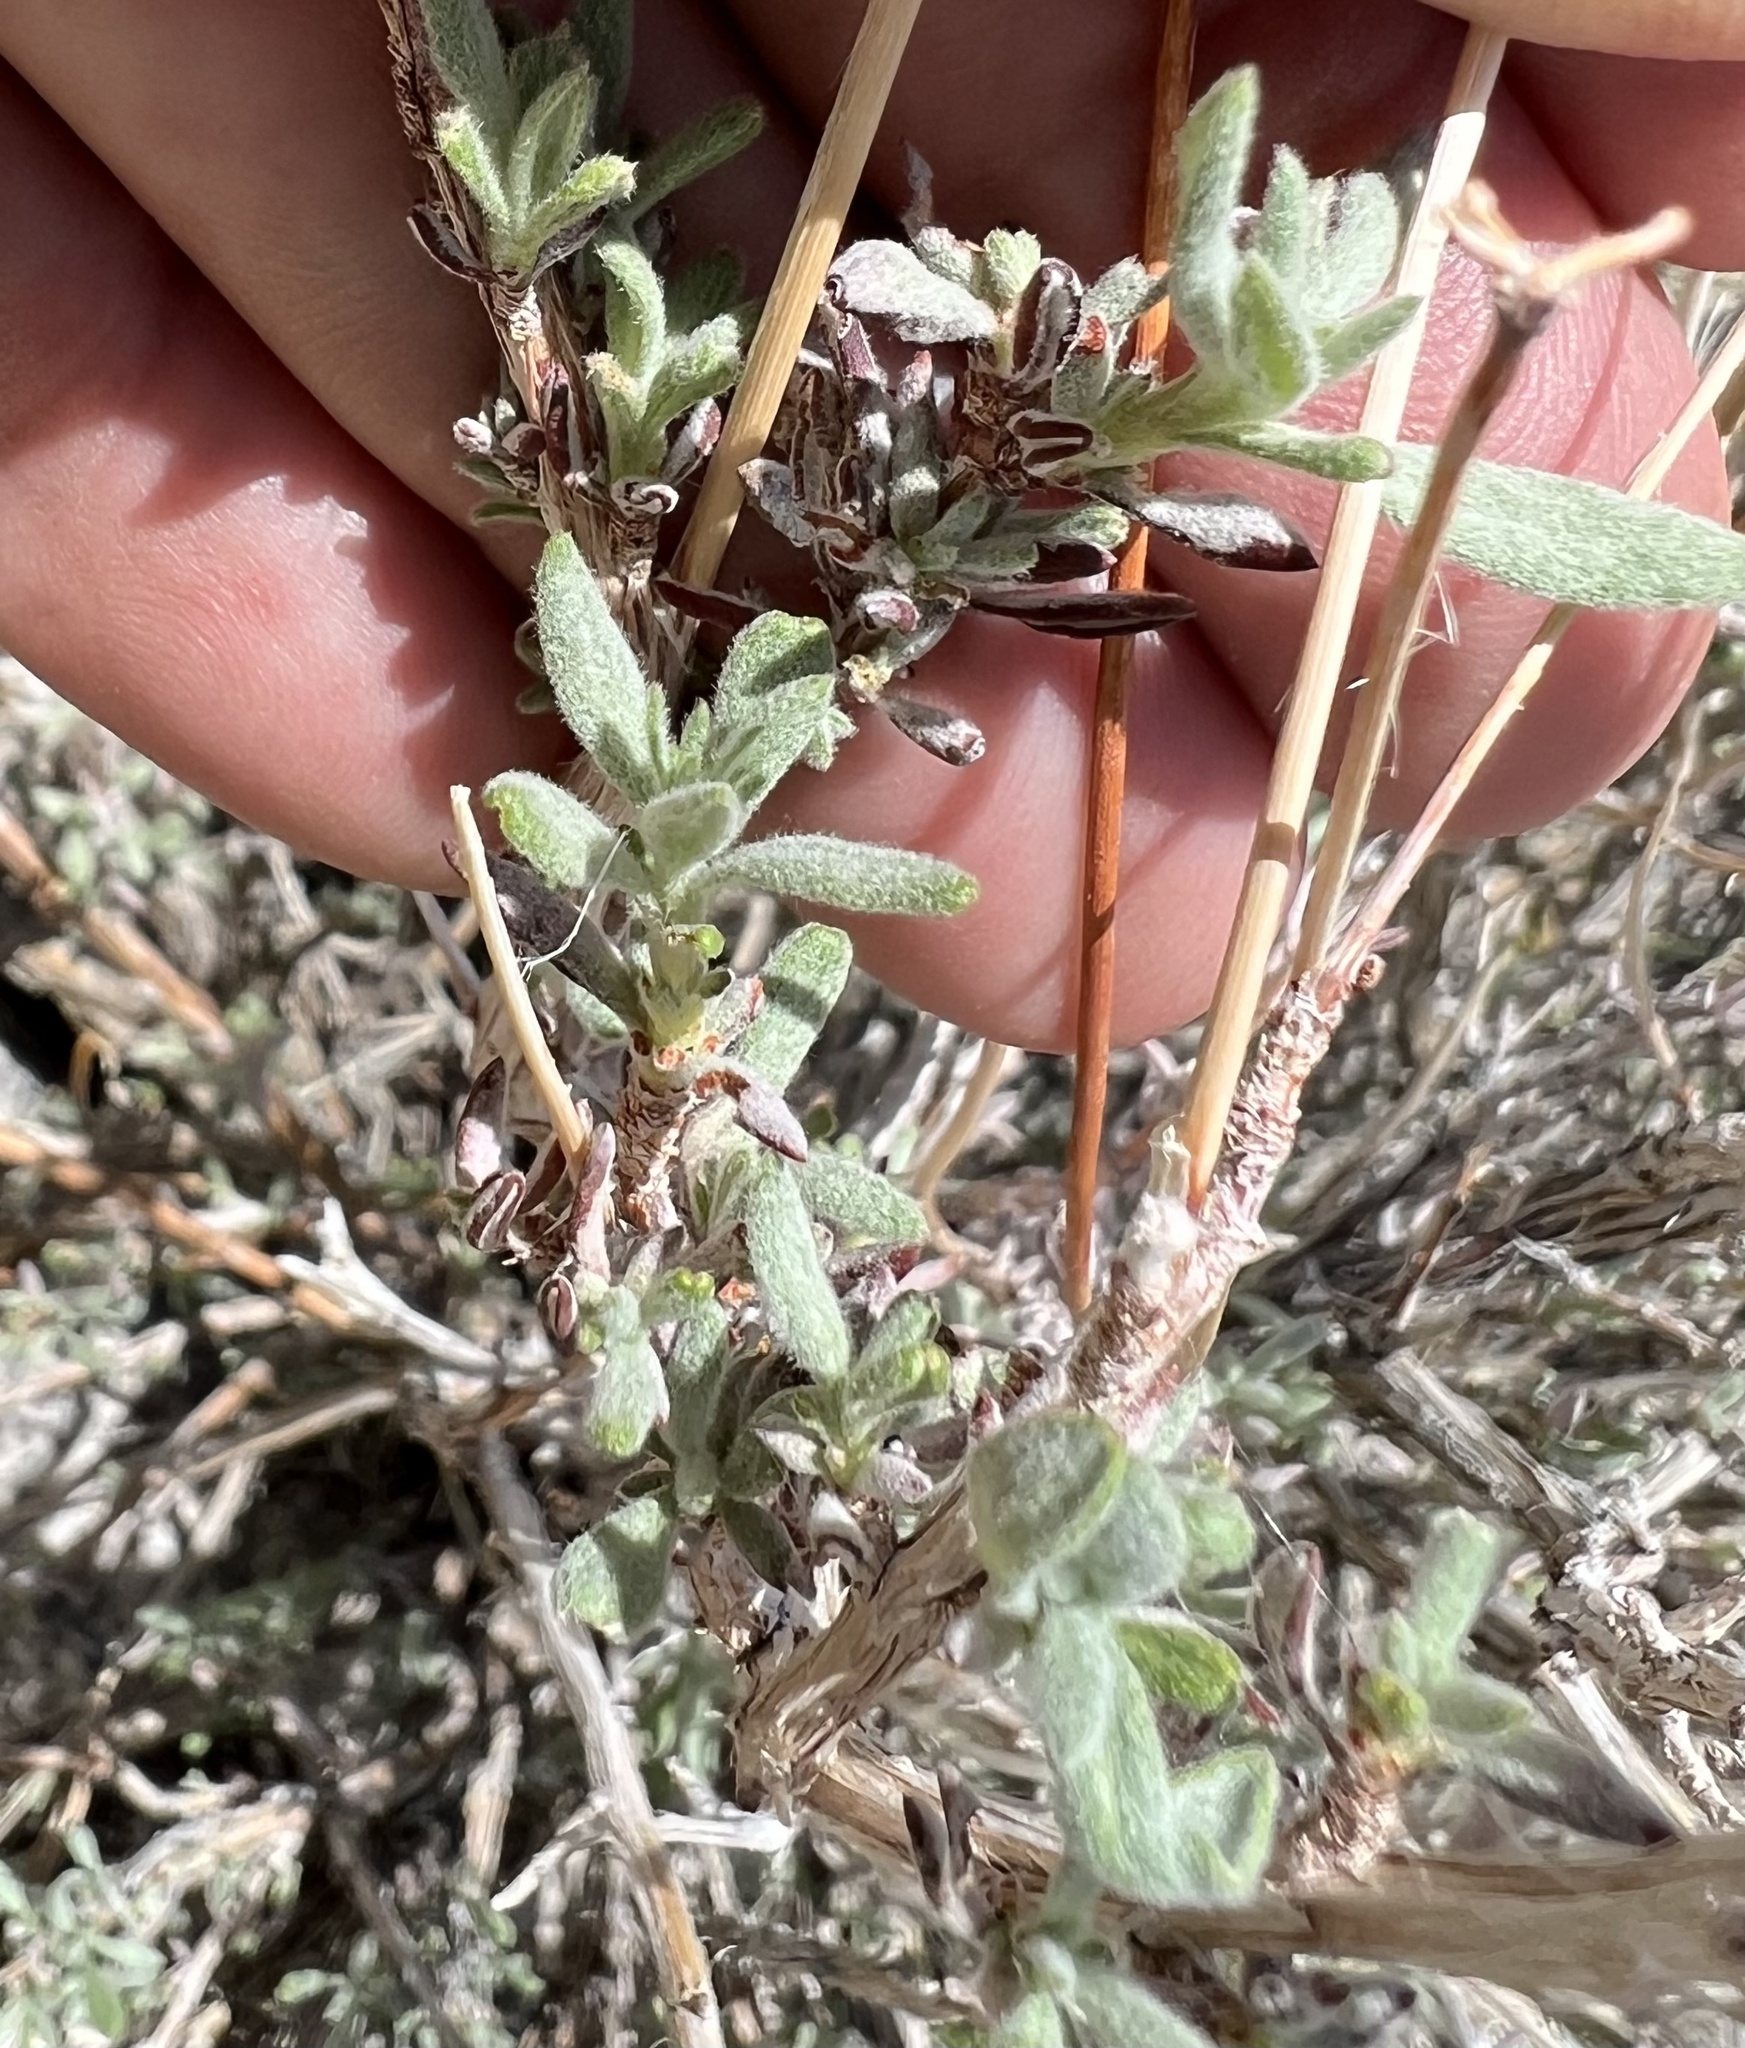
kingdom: Plantae
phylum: Tracheophyta
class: Magnoliopsida
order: Caryophyllales
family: Polygonaceae
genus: Eriogonum
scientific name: Eriogonum fasciculatum
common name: California wild buckwheat
